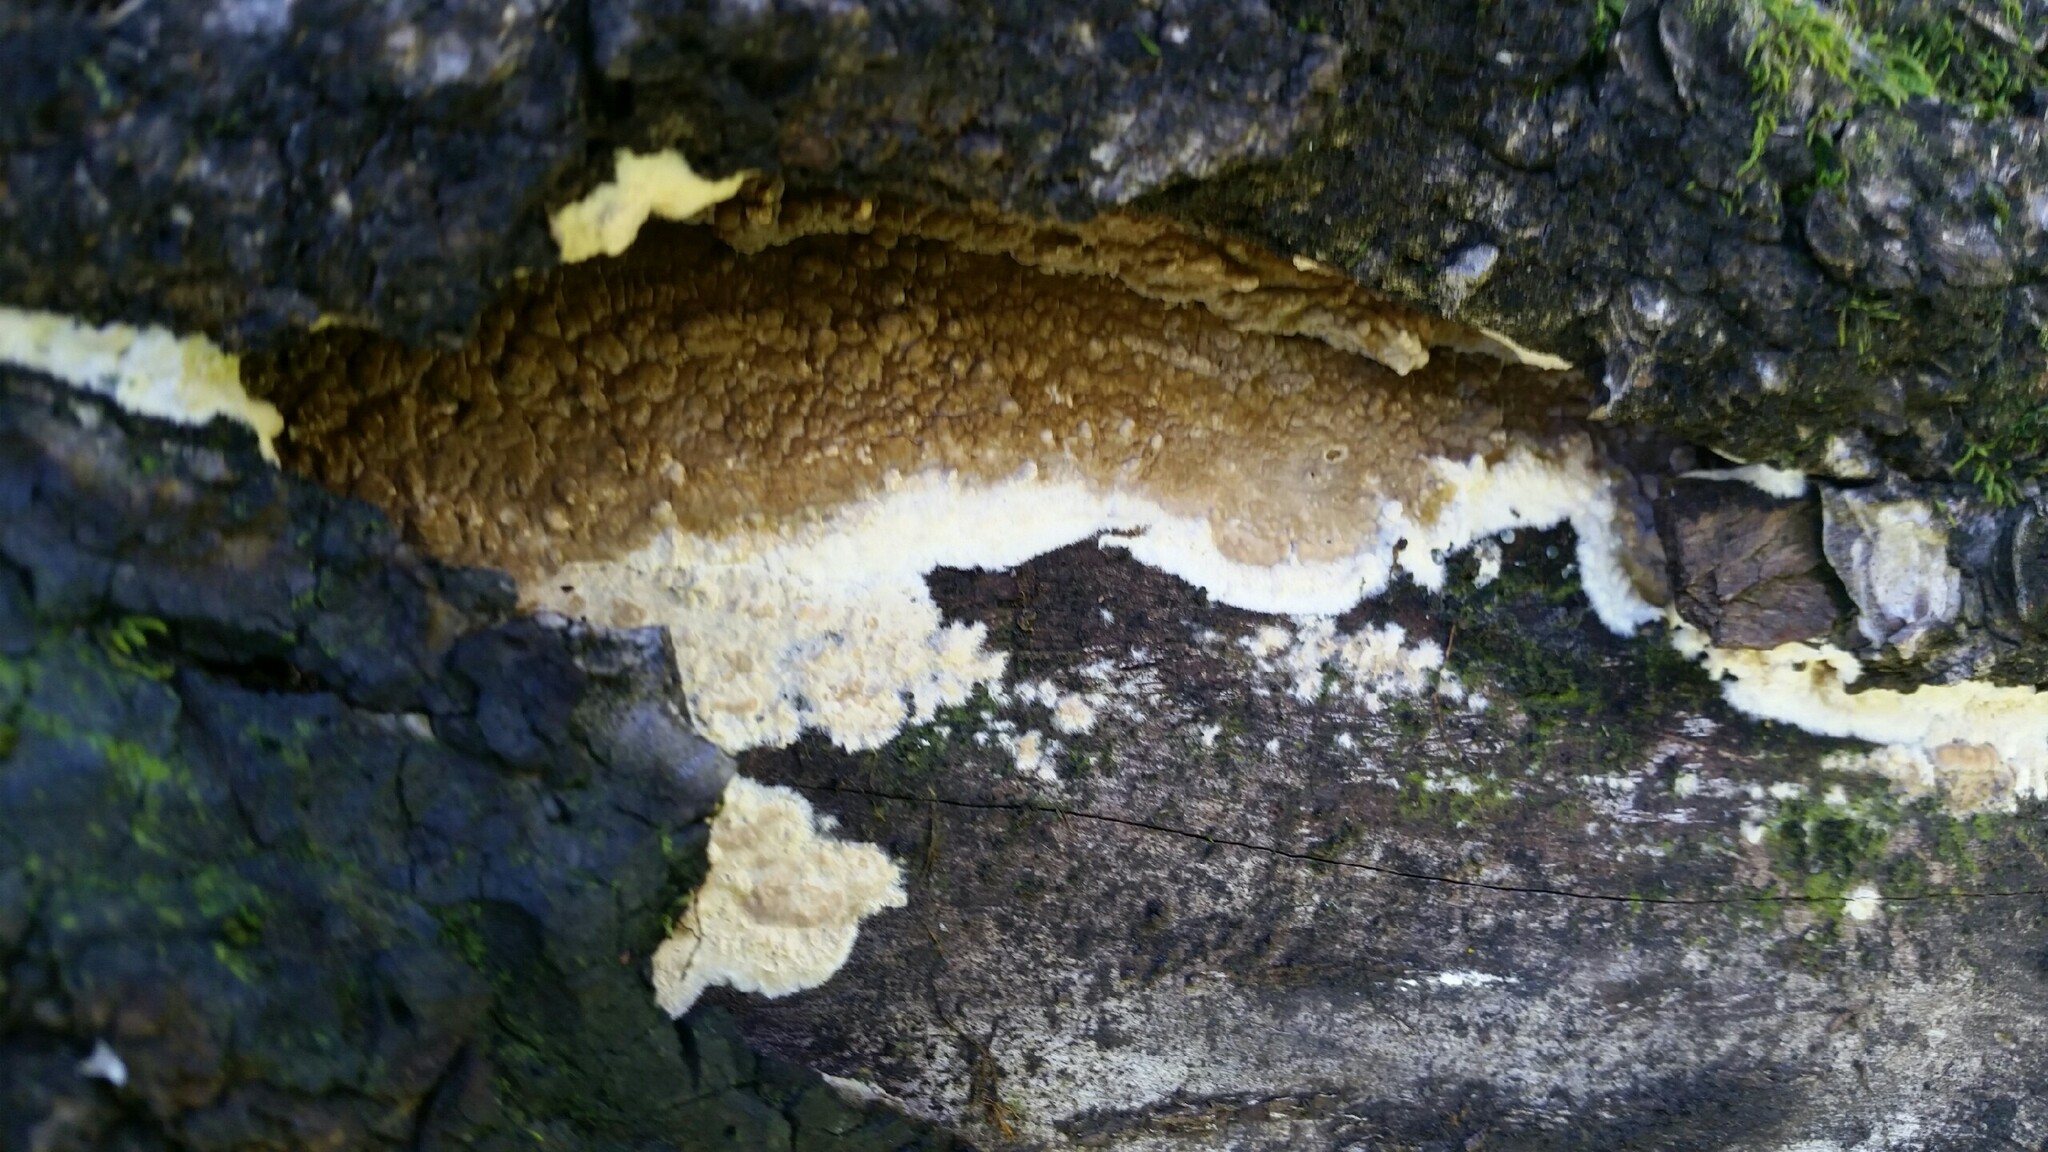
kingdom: Fungi
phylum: Basidiomycota
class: Agaricomycetes
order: Boletales
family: Coniophoraceae
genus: Coniophora
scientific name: Coniophora puteana
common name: Cellar fungus
